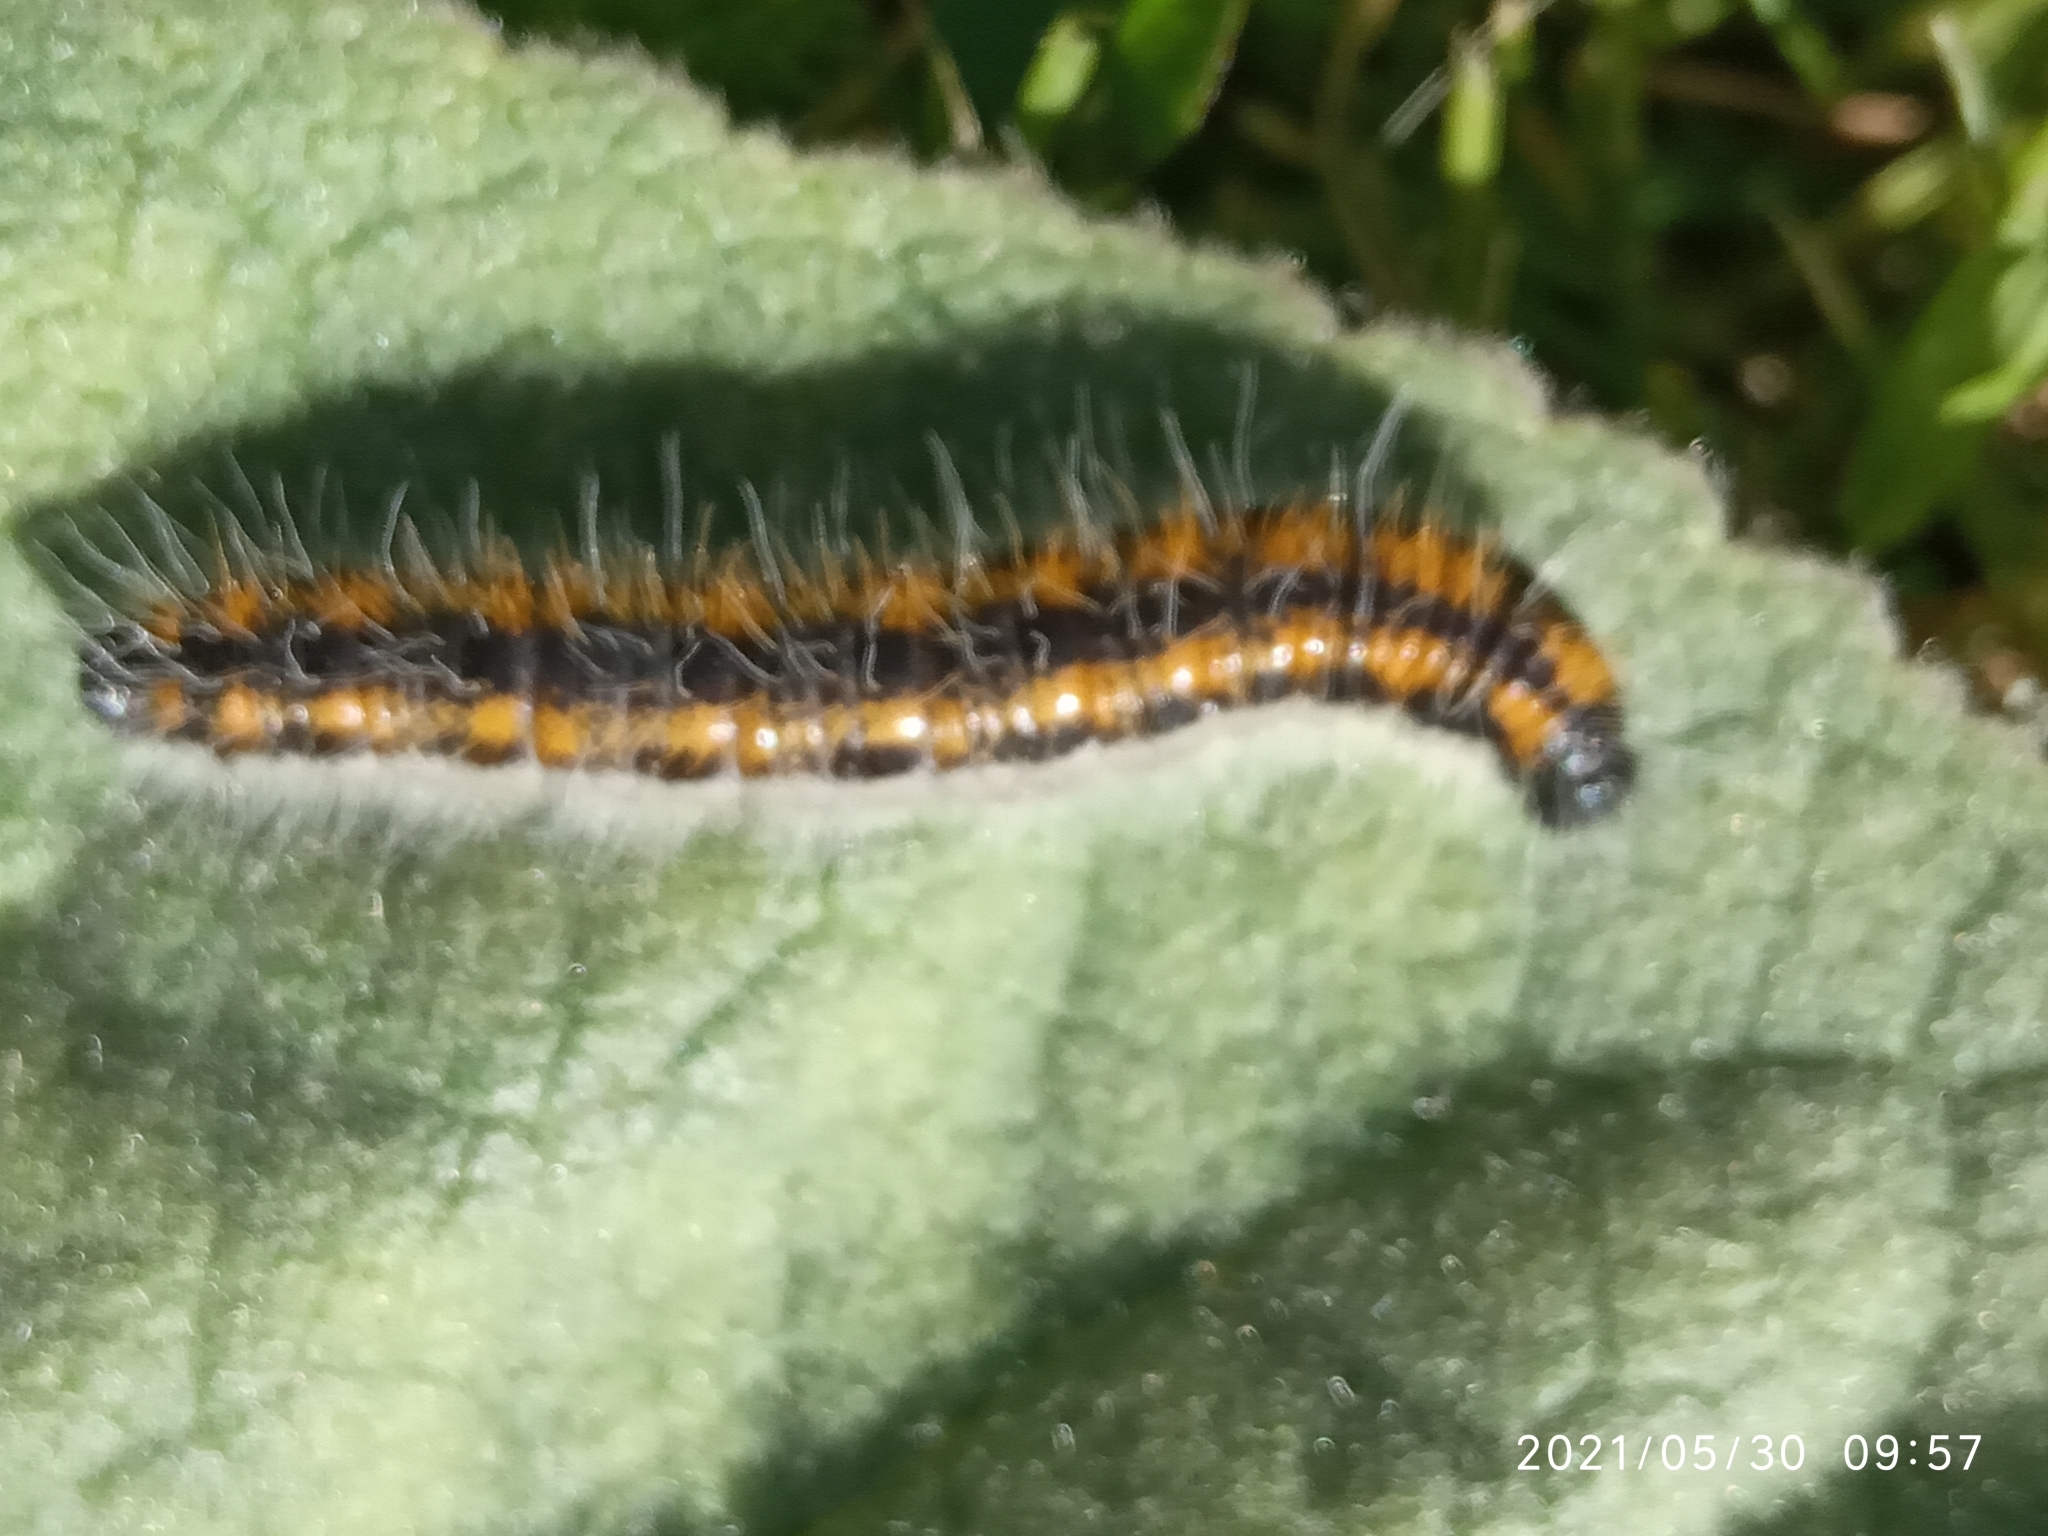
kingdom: Animalia
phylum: Arthropoda
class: Insecta
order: Lepidoptera
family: Pieridae
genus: Aporia
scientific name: Aporia crataegi
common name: Black-veined white
